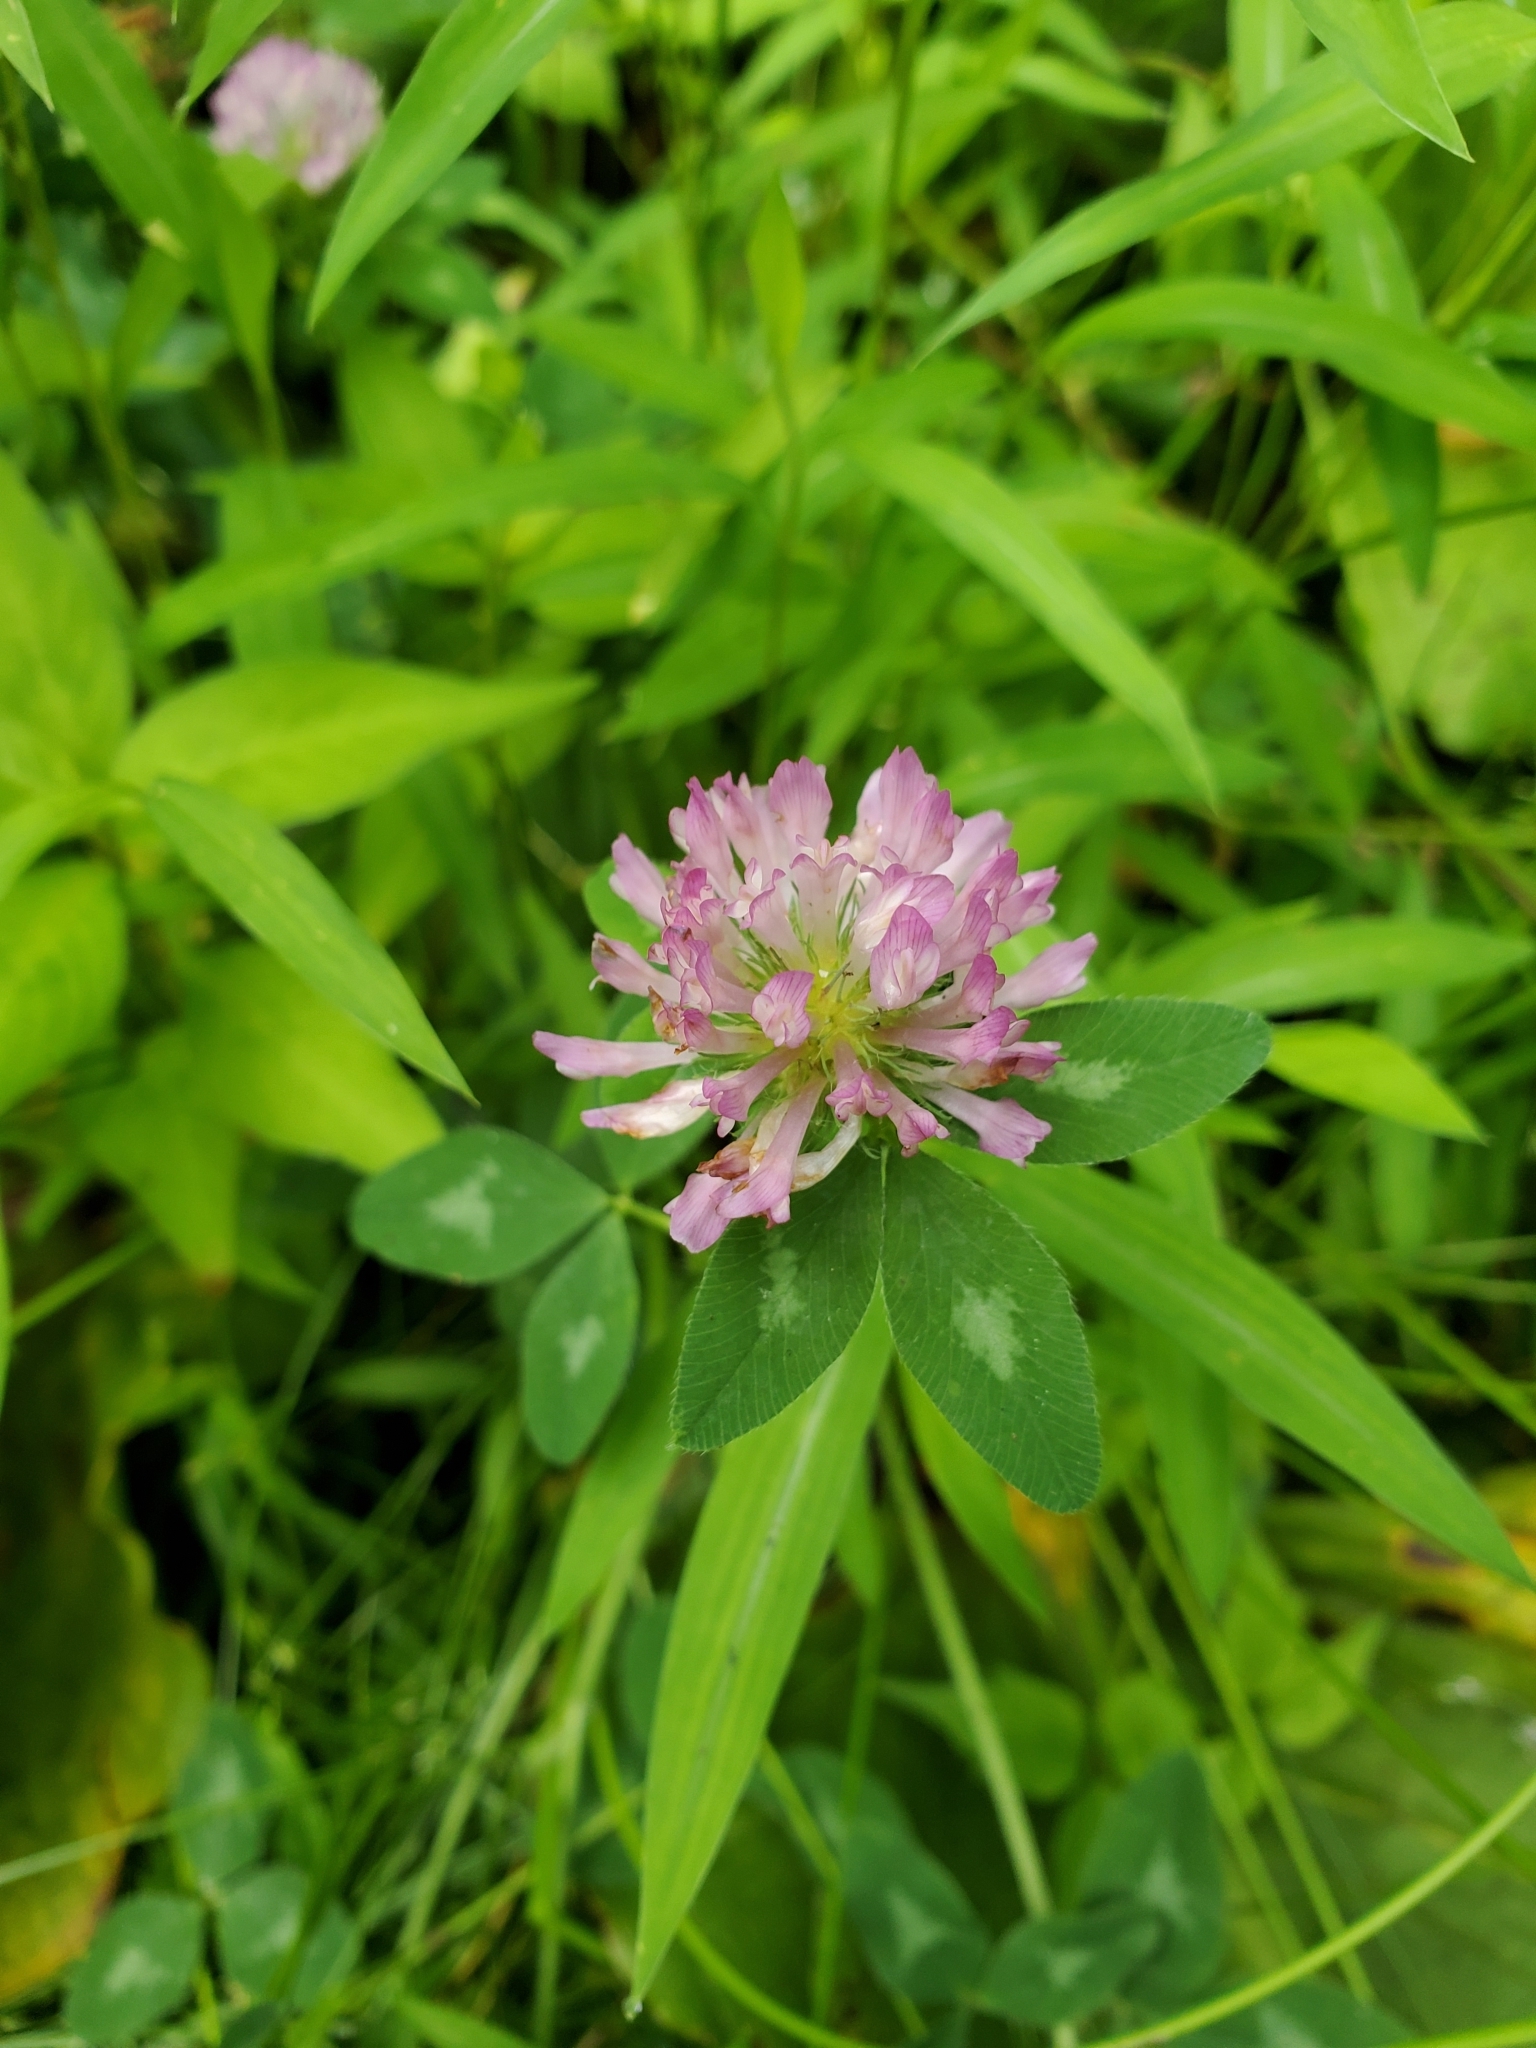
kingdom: Plantae
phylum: Tracheophyta
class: Magnoliopsida
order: Fabales
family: Fabaceae
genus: Trifolium
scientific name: Trifolium pratense
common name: Red clover
